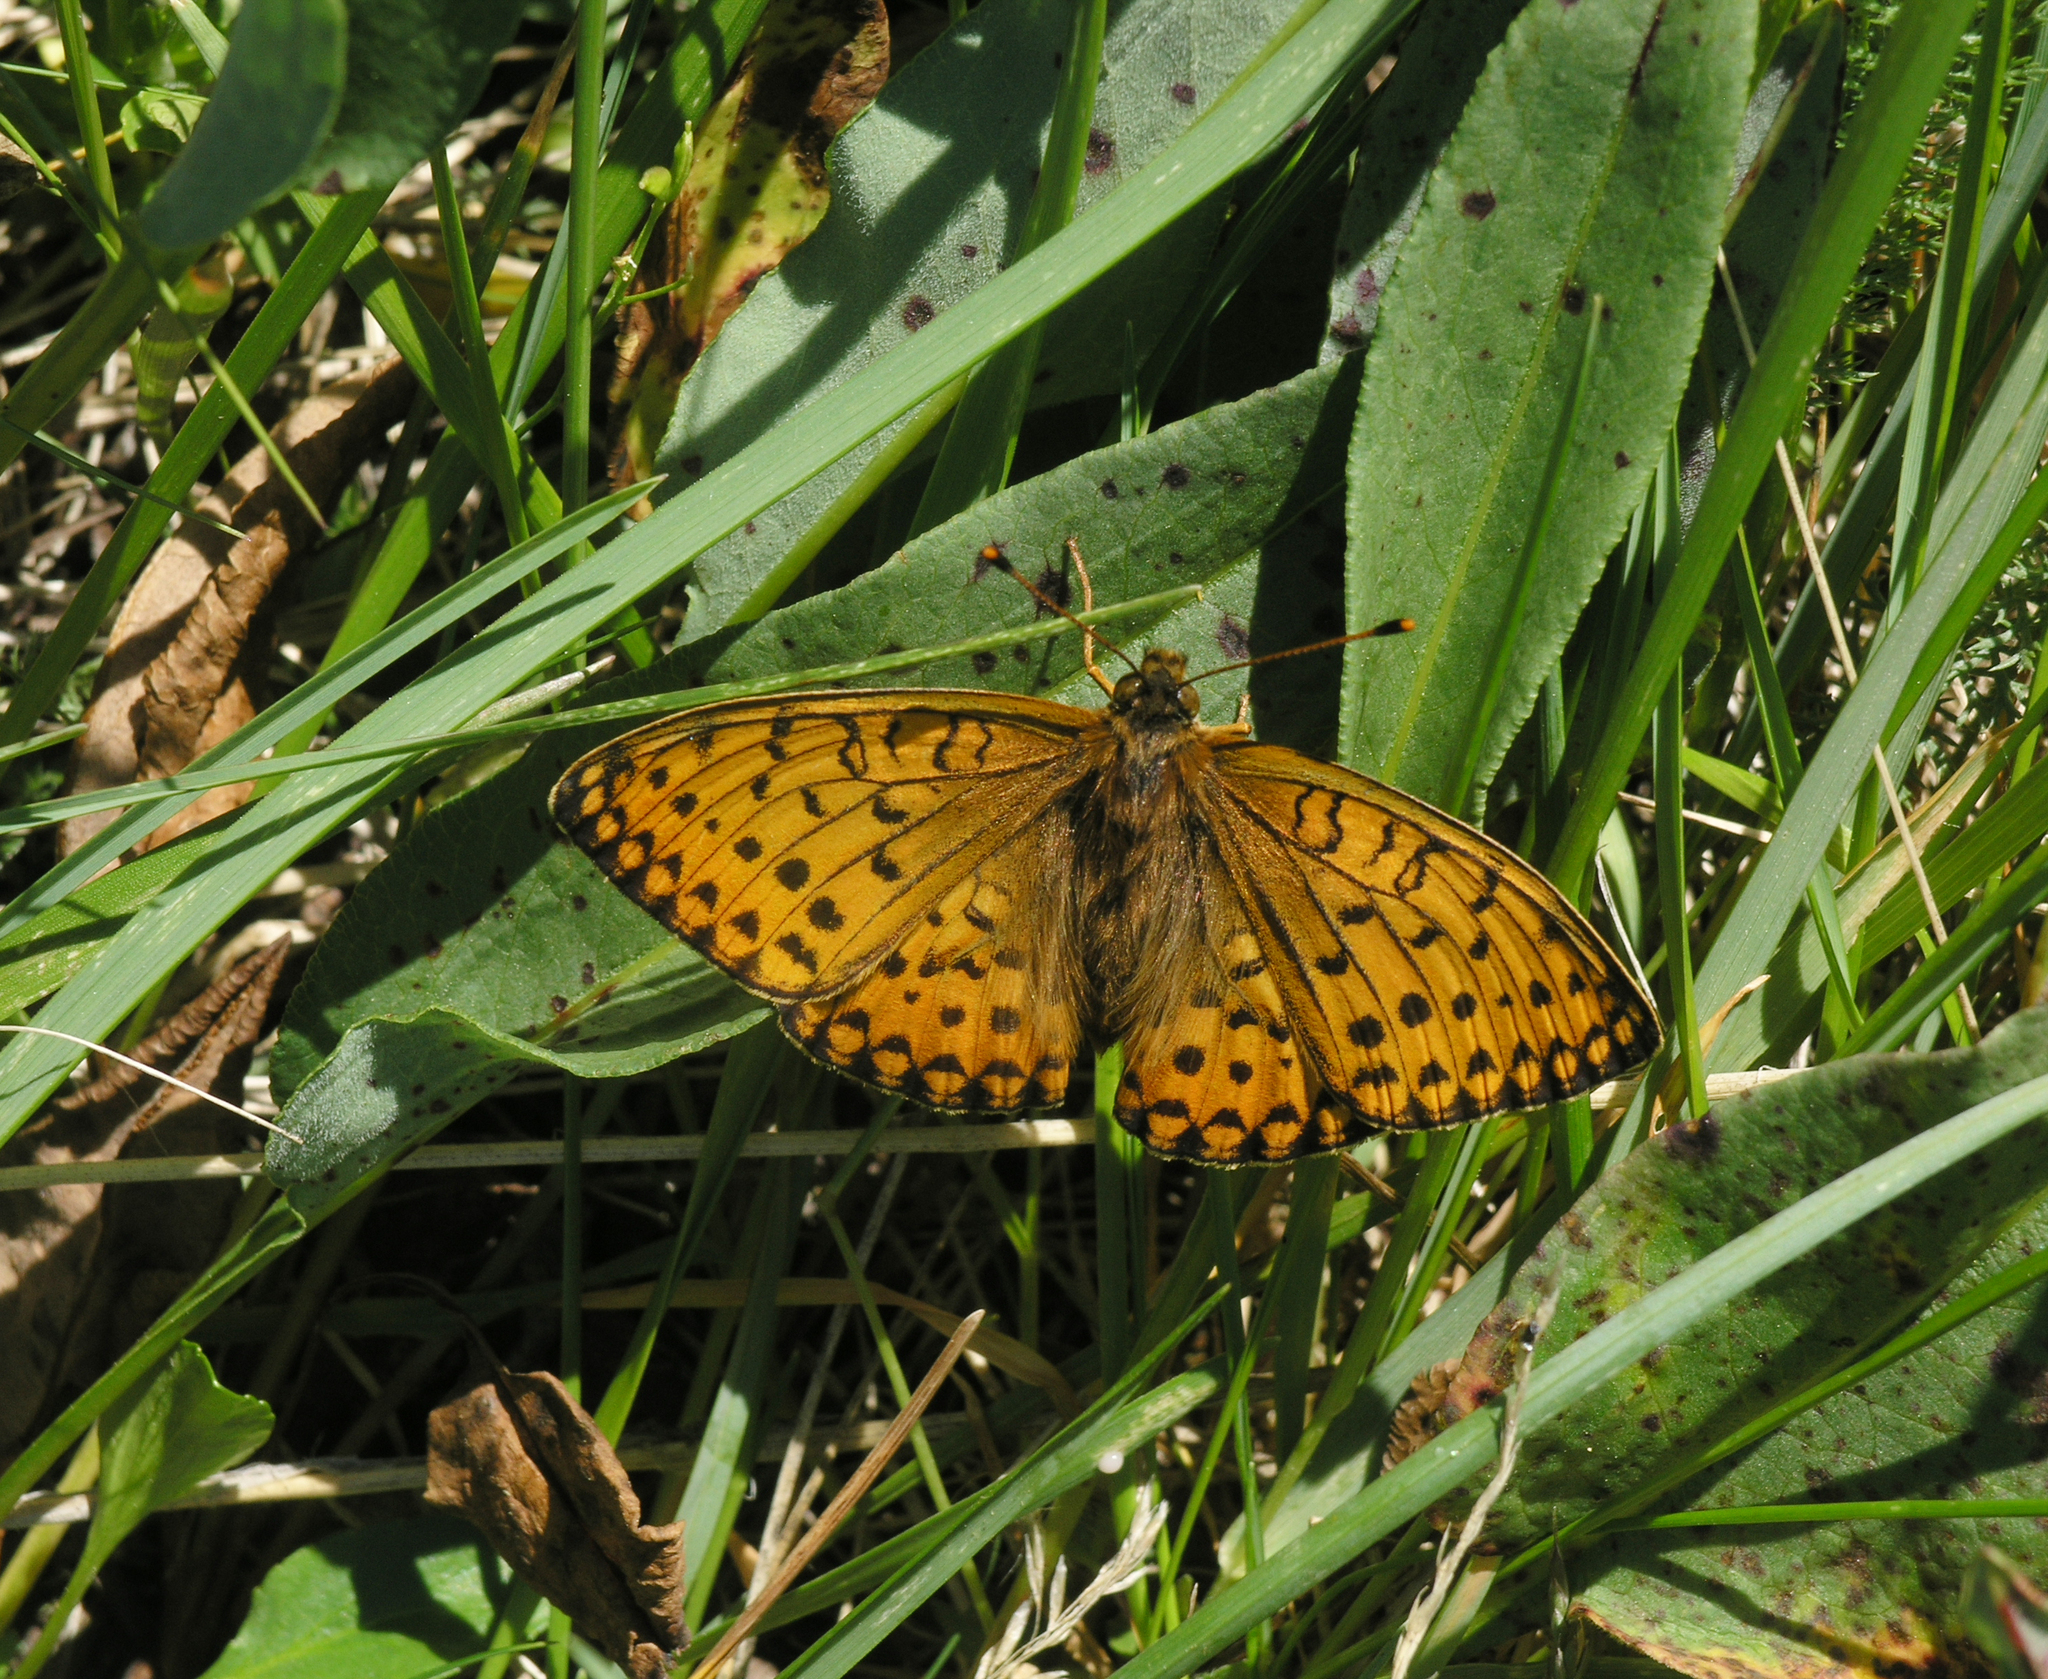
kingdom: Animalia
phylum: Arthropoda
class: Insecta
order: Lepidoptera
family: Nymphalidae
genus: Speyeria
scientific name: Speyeria aglaja
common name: Dark green fritillary
